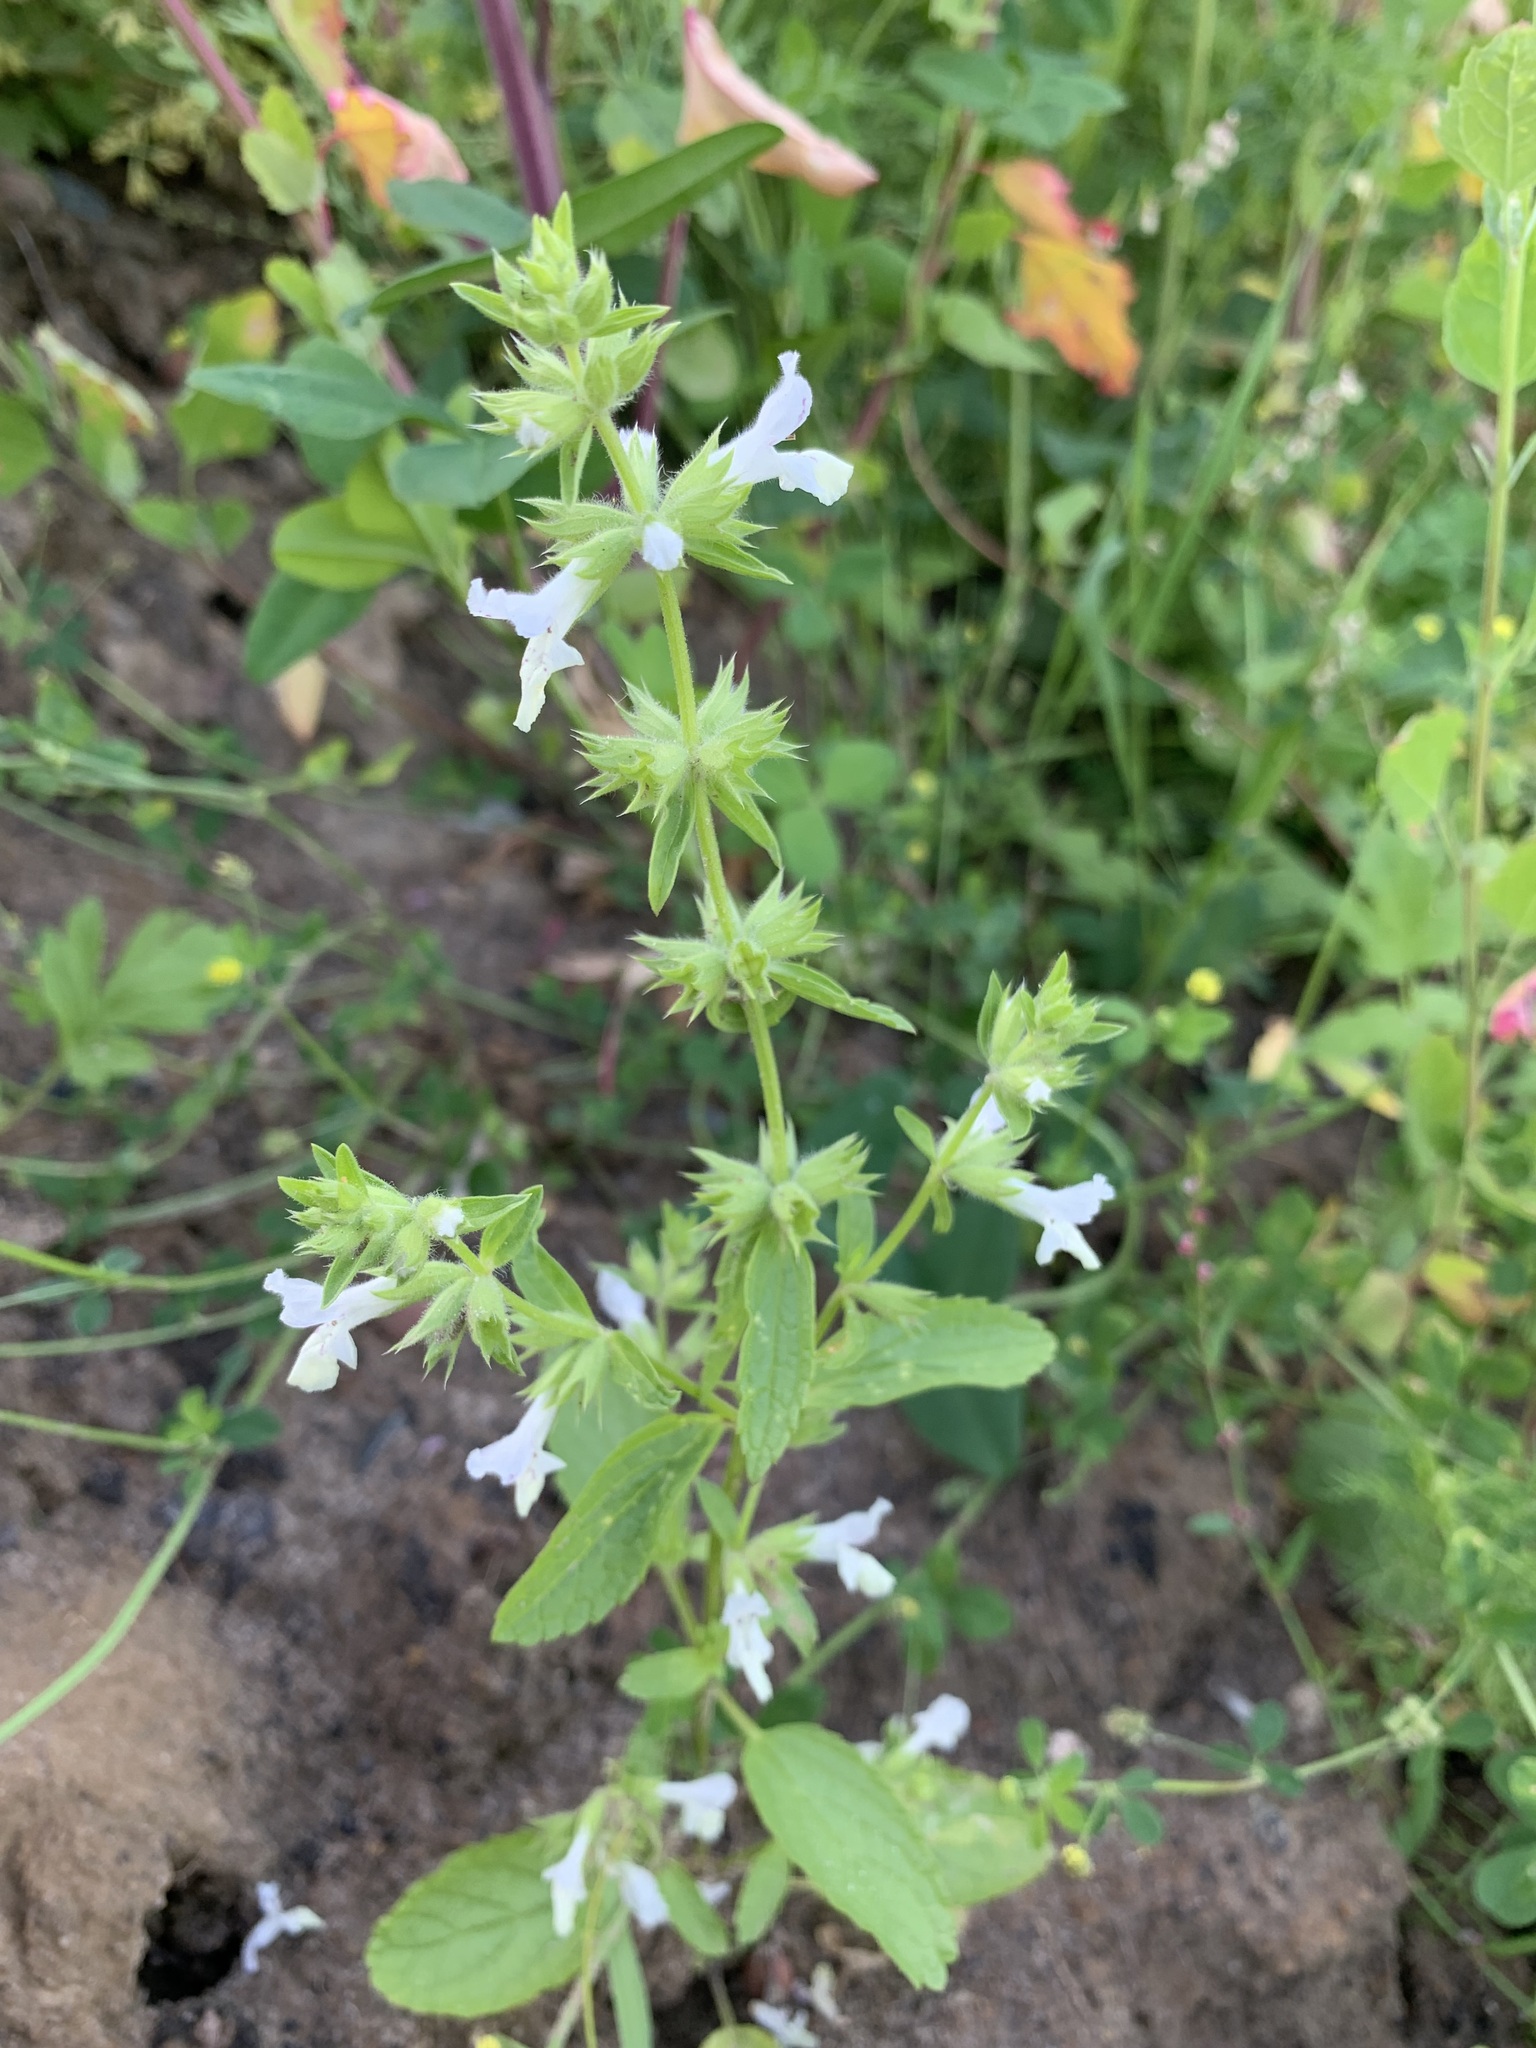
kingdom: Plantae
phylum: Tracheophyta
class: Magnoliopsida
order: Lamiales
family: Lamiaceae
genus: Stachys
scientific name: Stachys annua
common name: Annual yellow-woundwort
